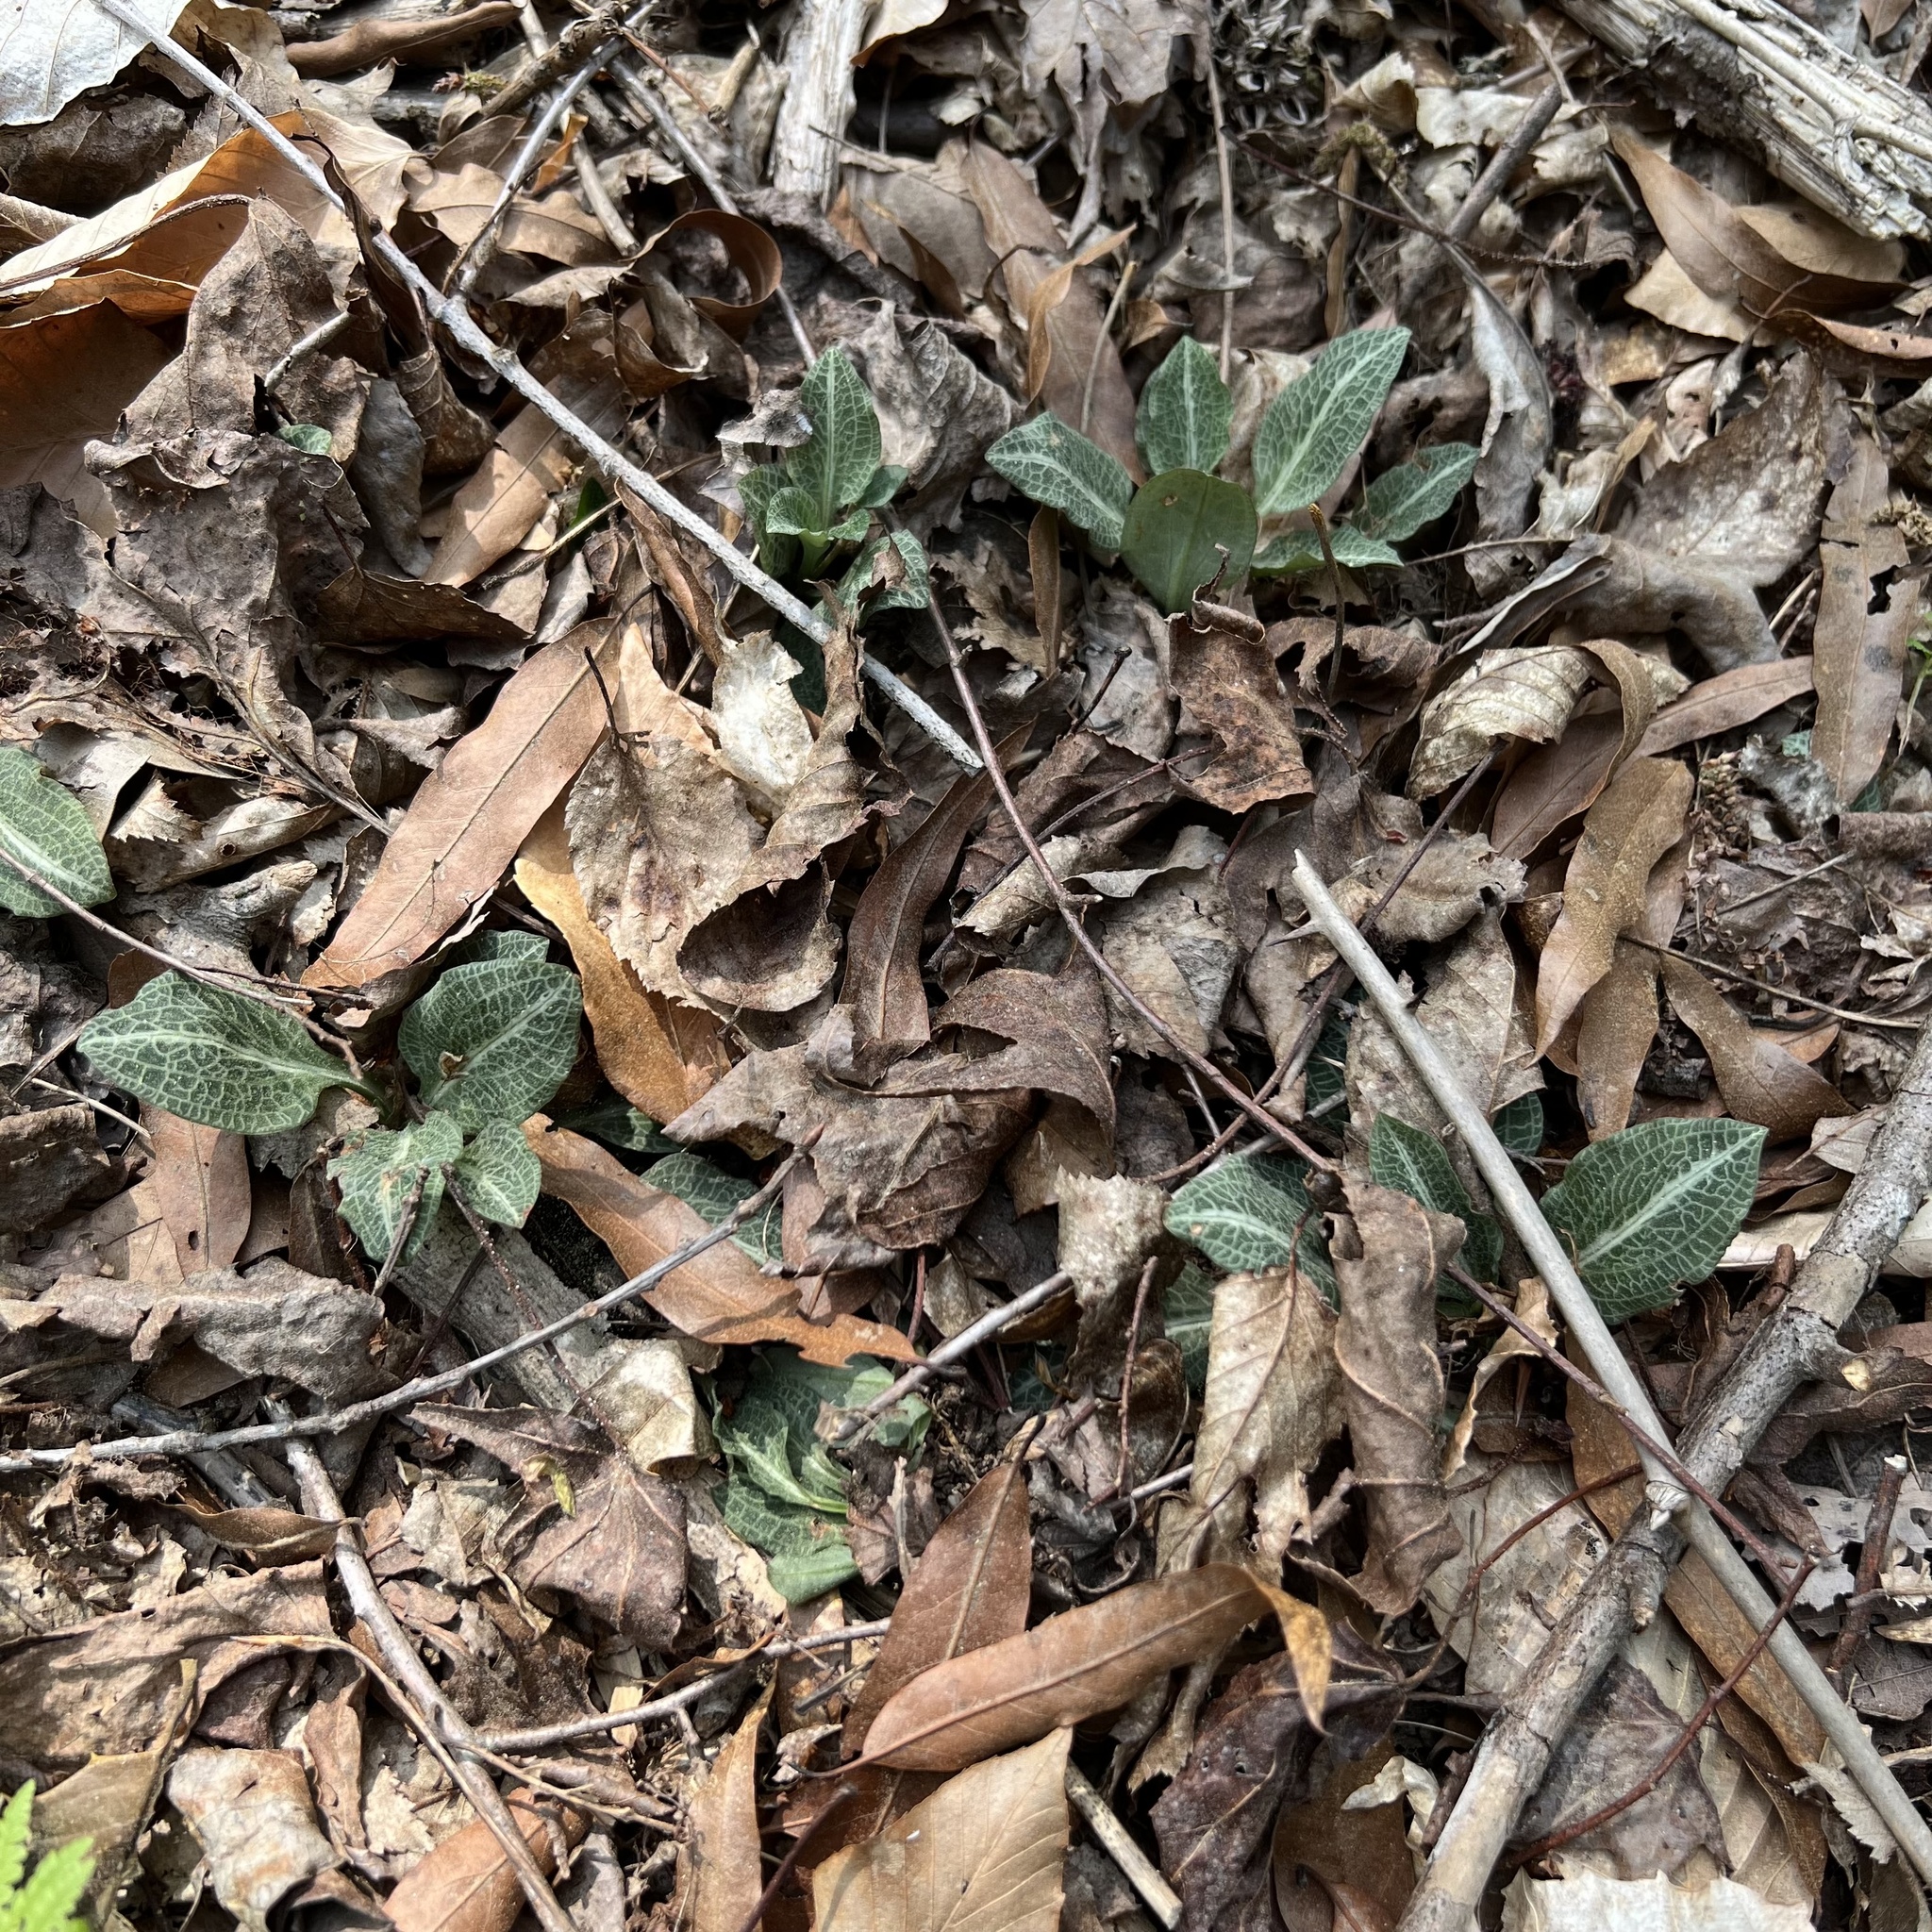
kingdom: Plantae
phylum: Tracheophyta
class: Liliopsida
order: Asparagales
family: Orchidaceae
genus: Goodyera
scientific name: Goodyera pubescens
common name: Downy rattlesnake-plantain
